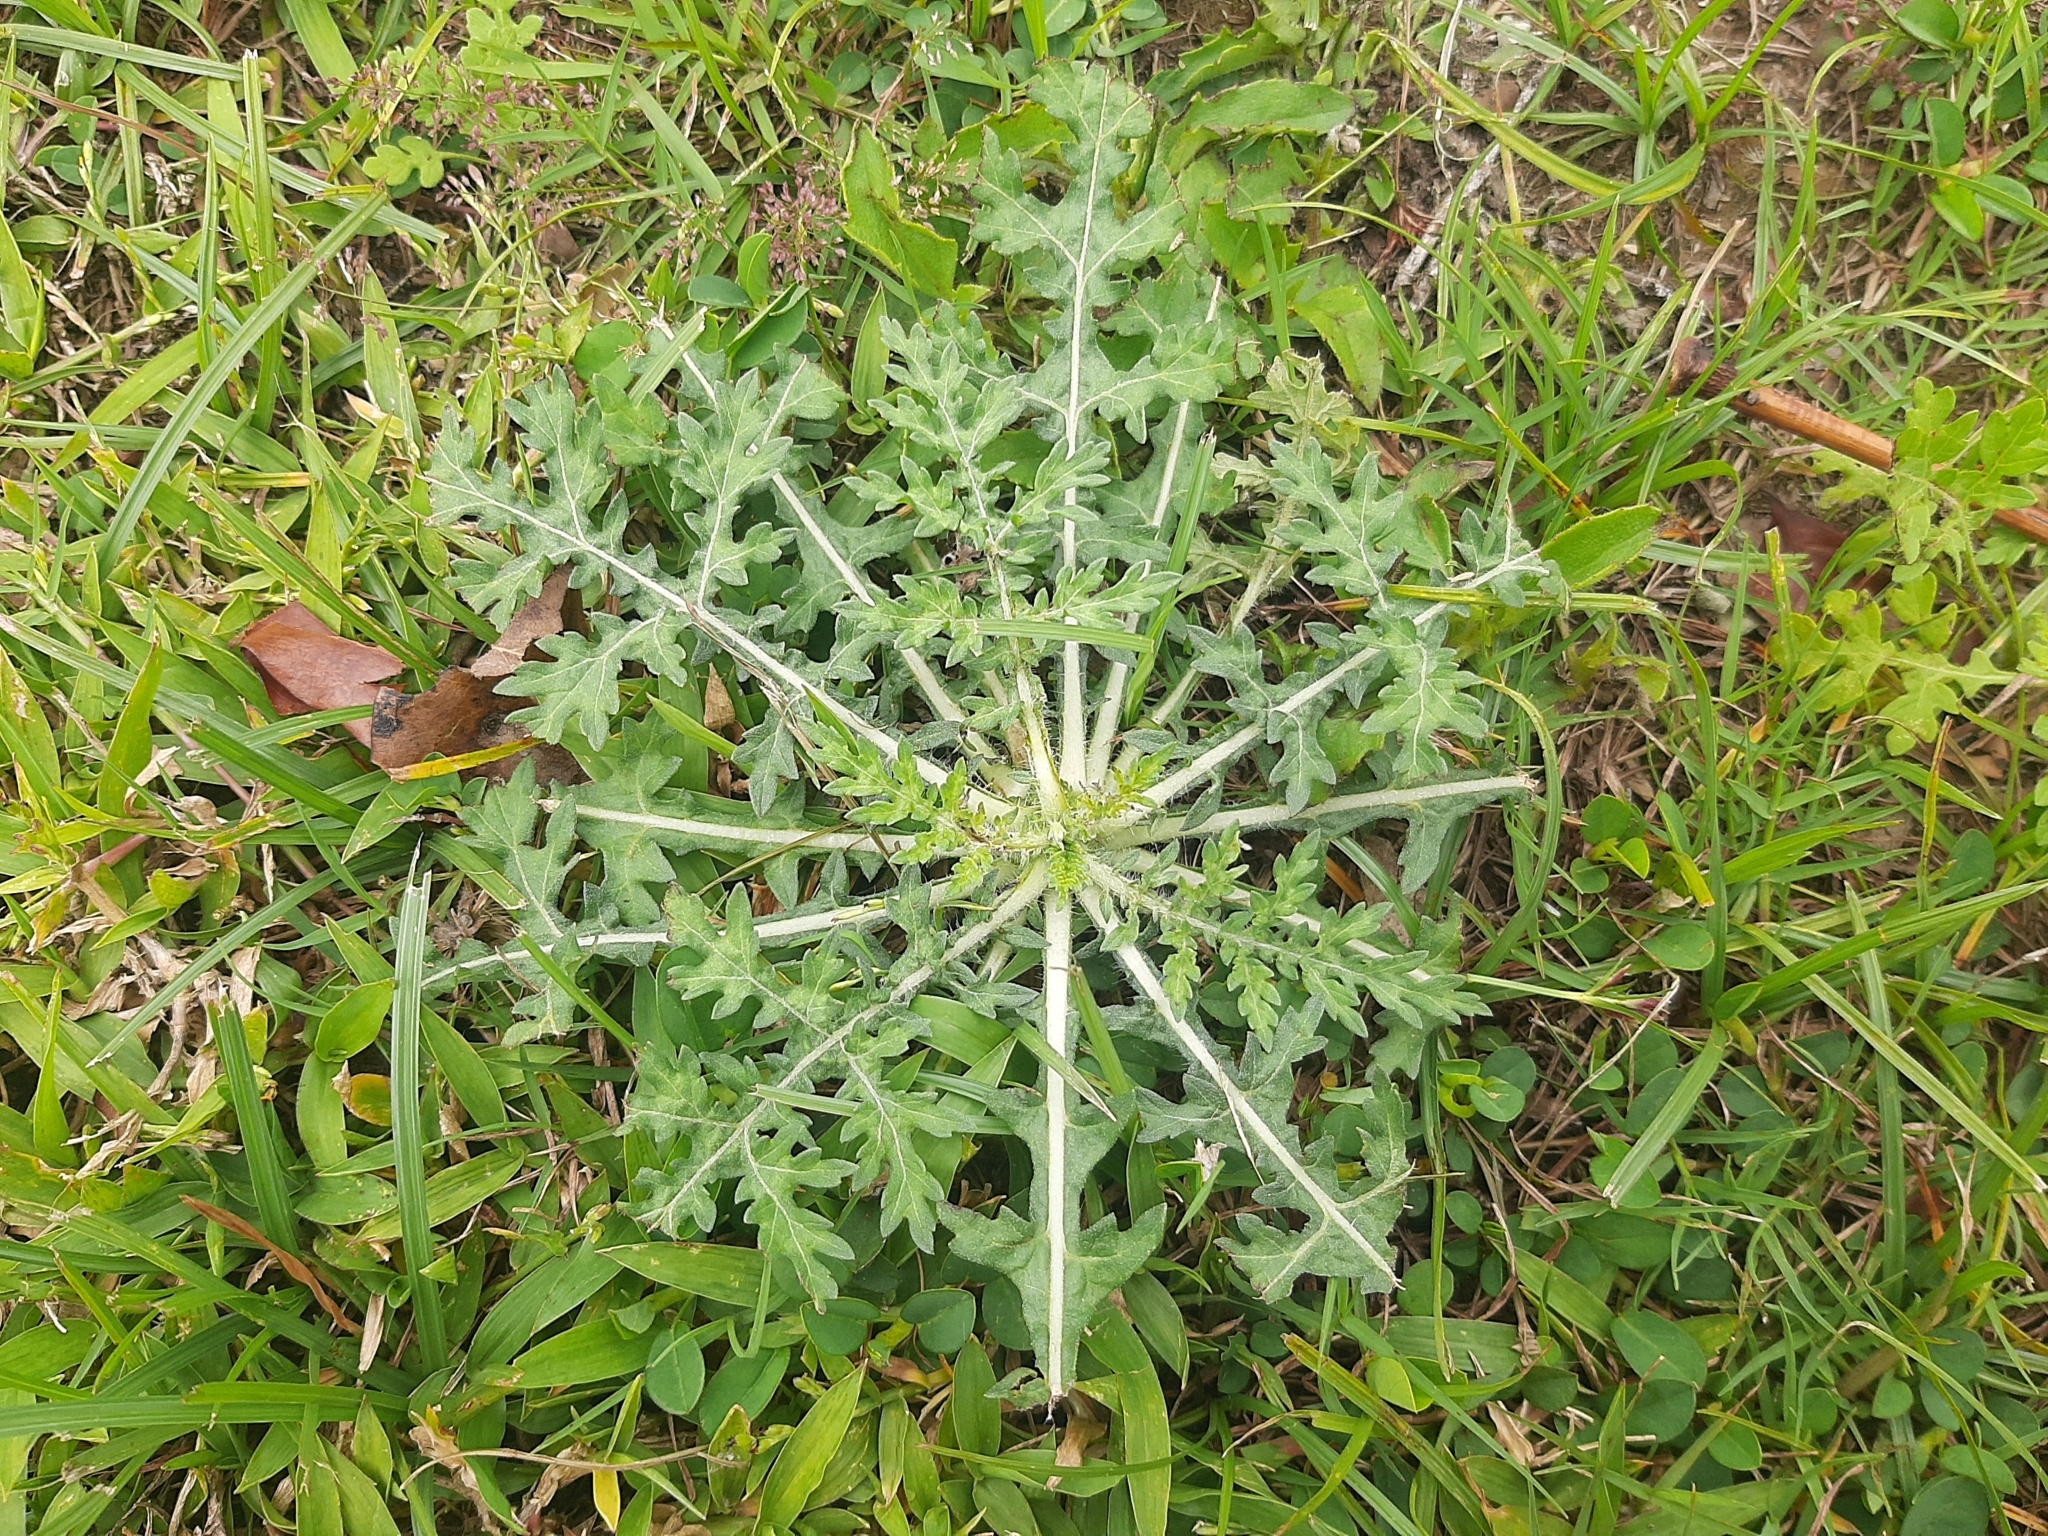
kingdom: Plantae
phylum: Tracheophyta
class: Magnoliopsida
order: Asterales
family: Asteraceae
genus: Parthenium
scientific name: Parthenium hysterophorus
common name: Santa maria feverfew
